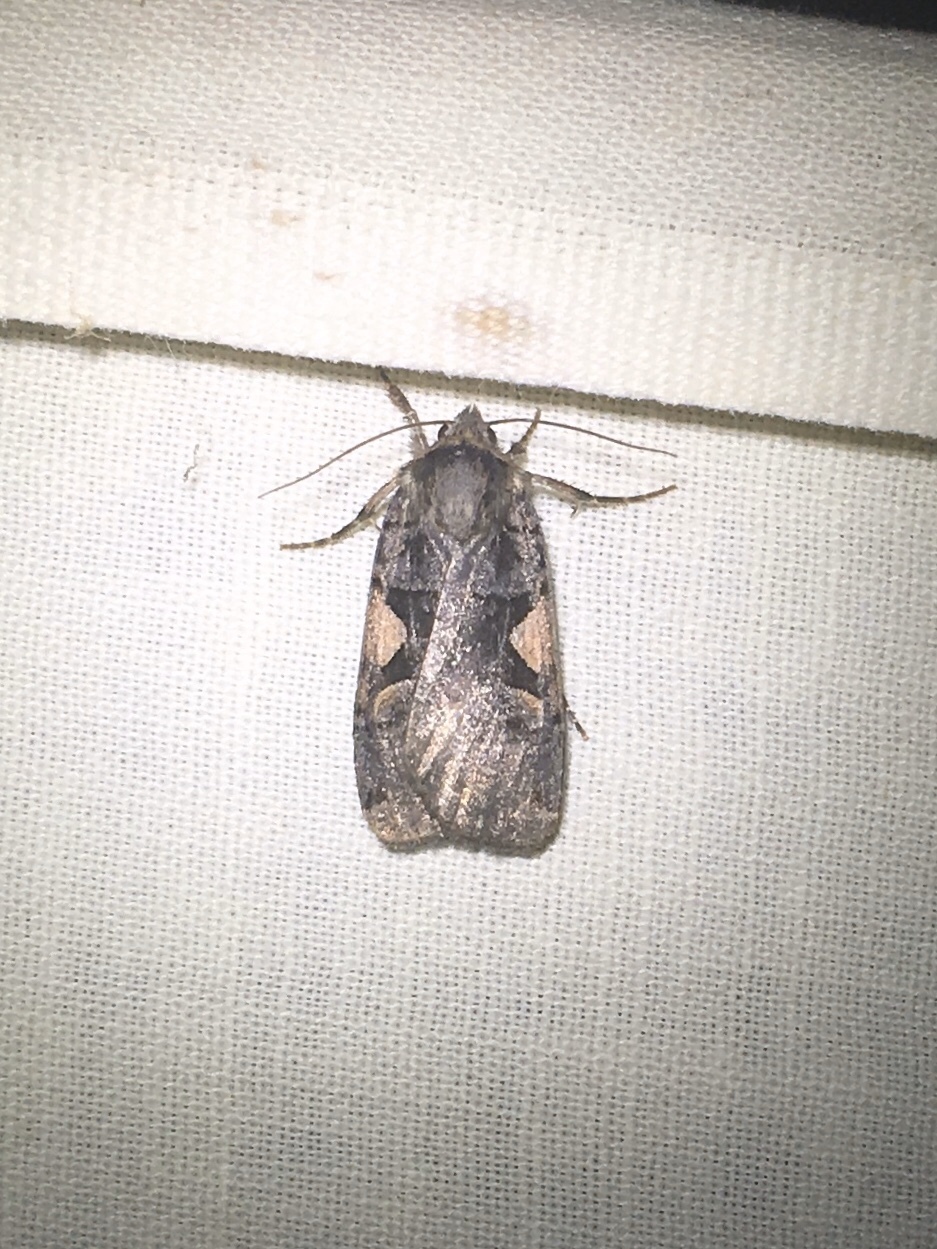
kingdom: Animalia
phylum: Arthropoda
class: Insecta
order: Lepidoptera
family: Noctuidae
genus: Xestia
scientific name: Xestia
